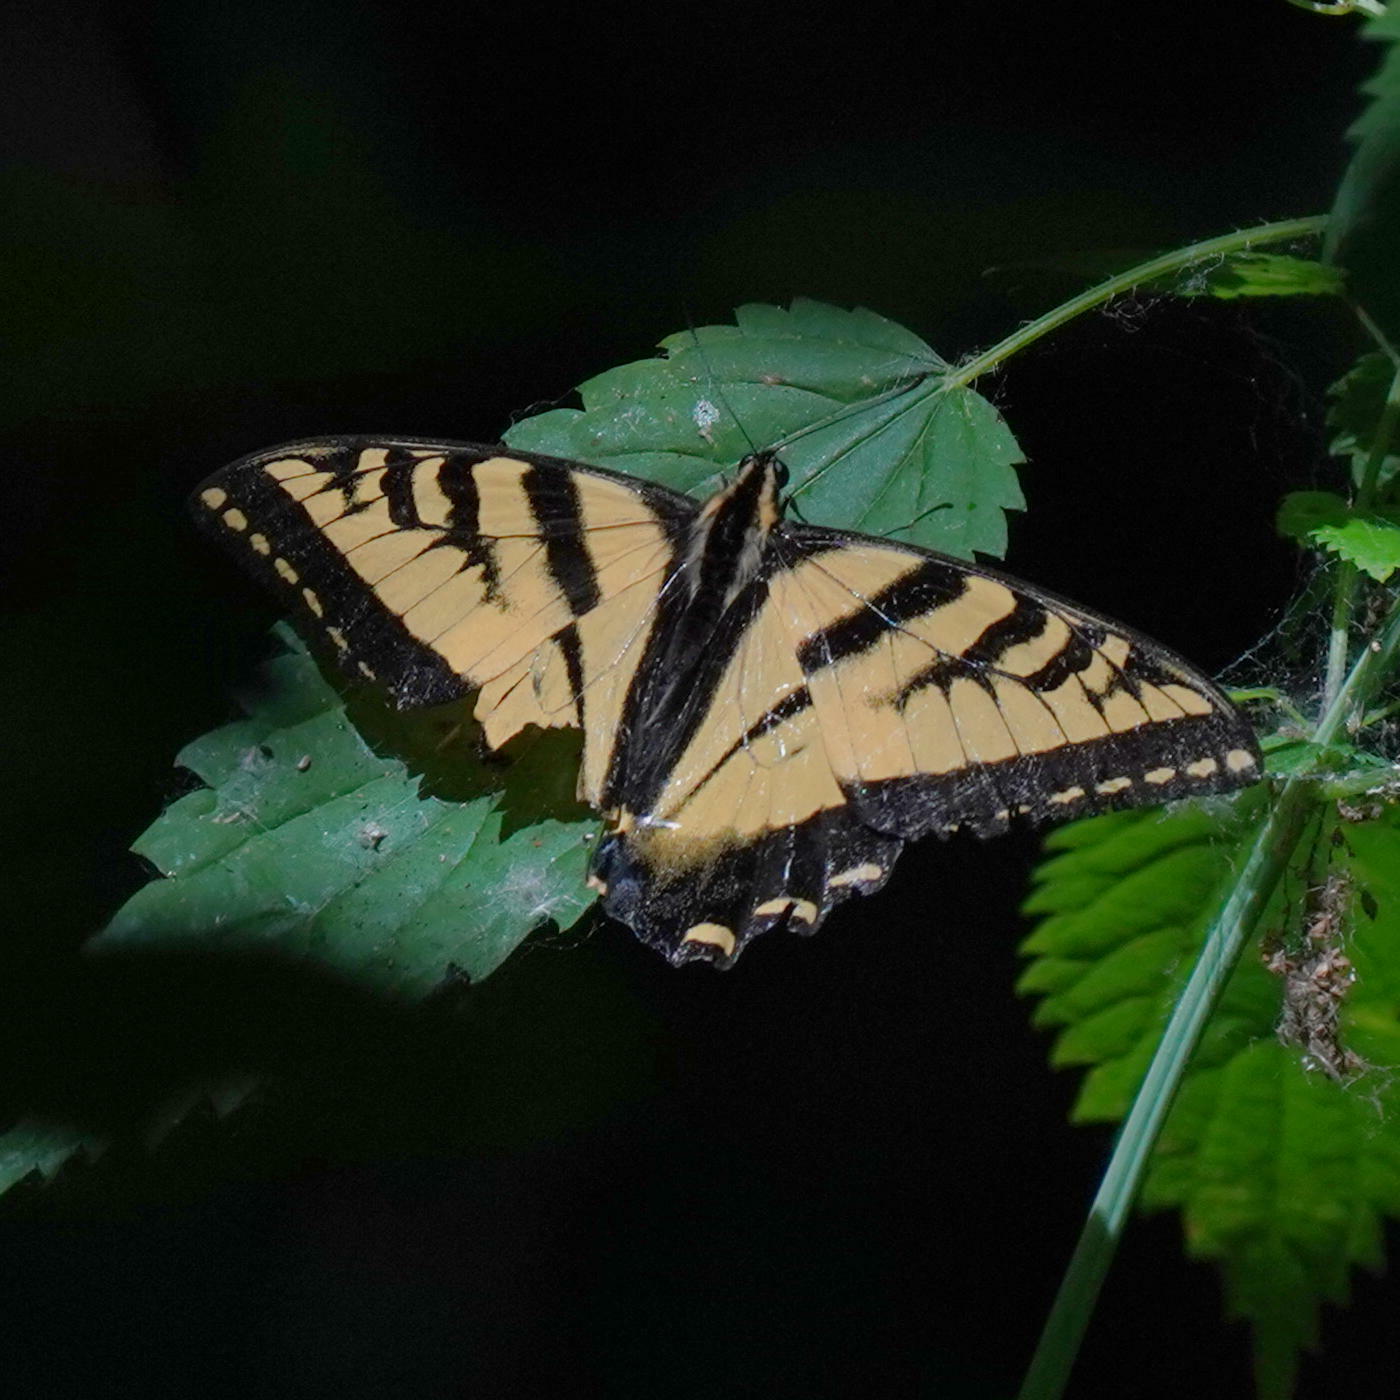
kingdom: Animalia
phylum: Arthropoda
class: Insecta
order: Lepidoptera
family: Papilionidae
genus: Papilio
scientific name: Papilio rutulus
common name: Western tiger swallowtail
